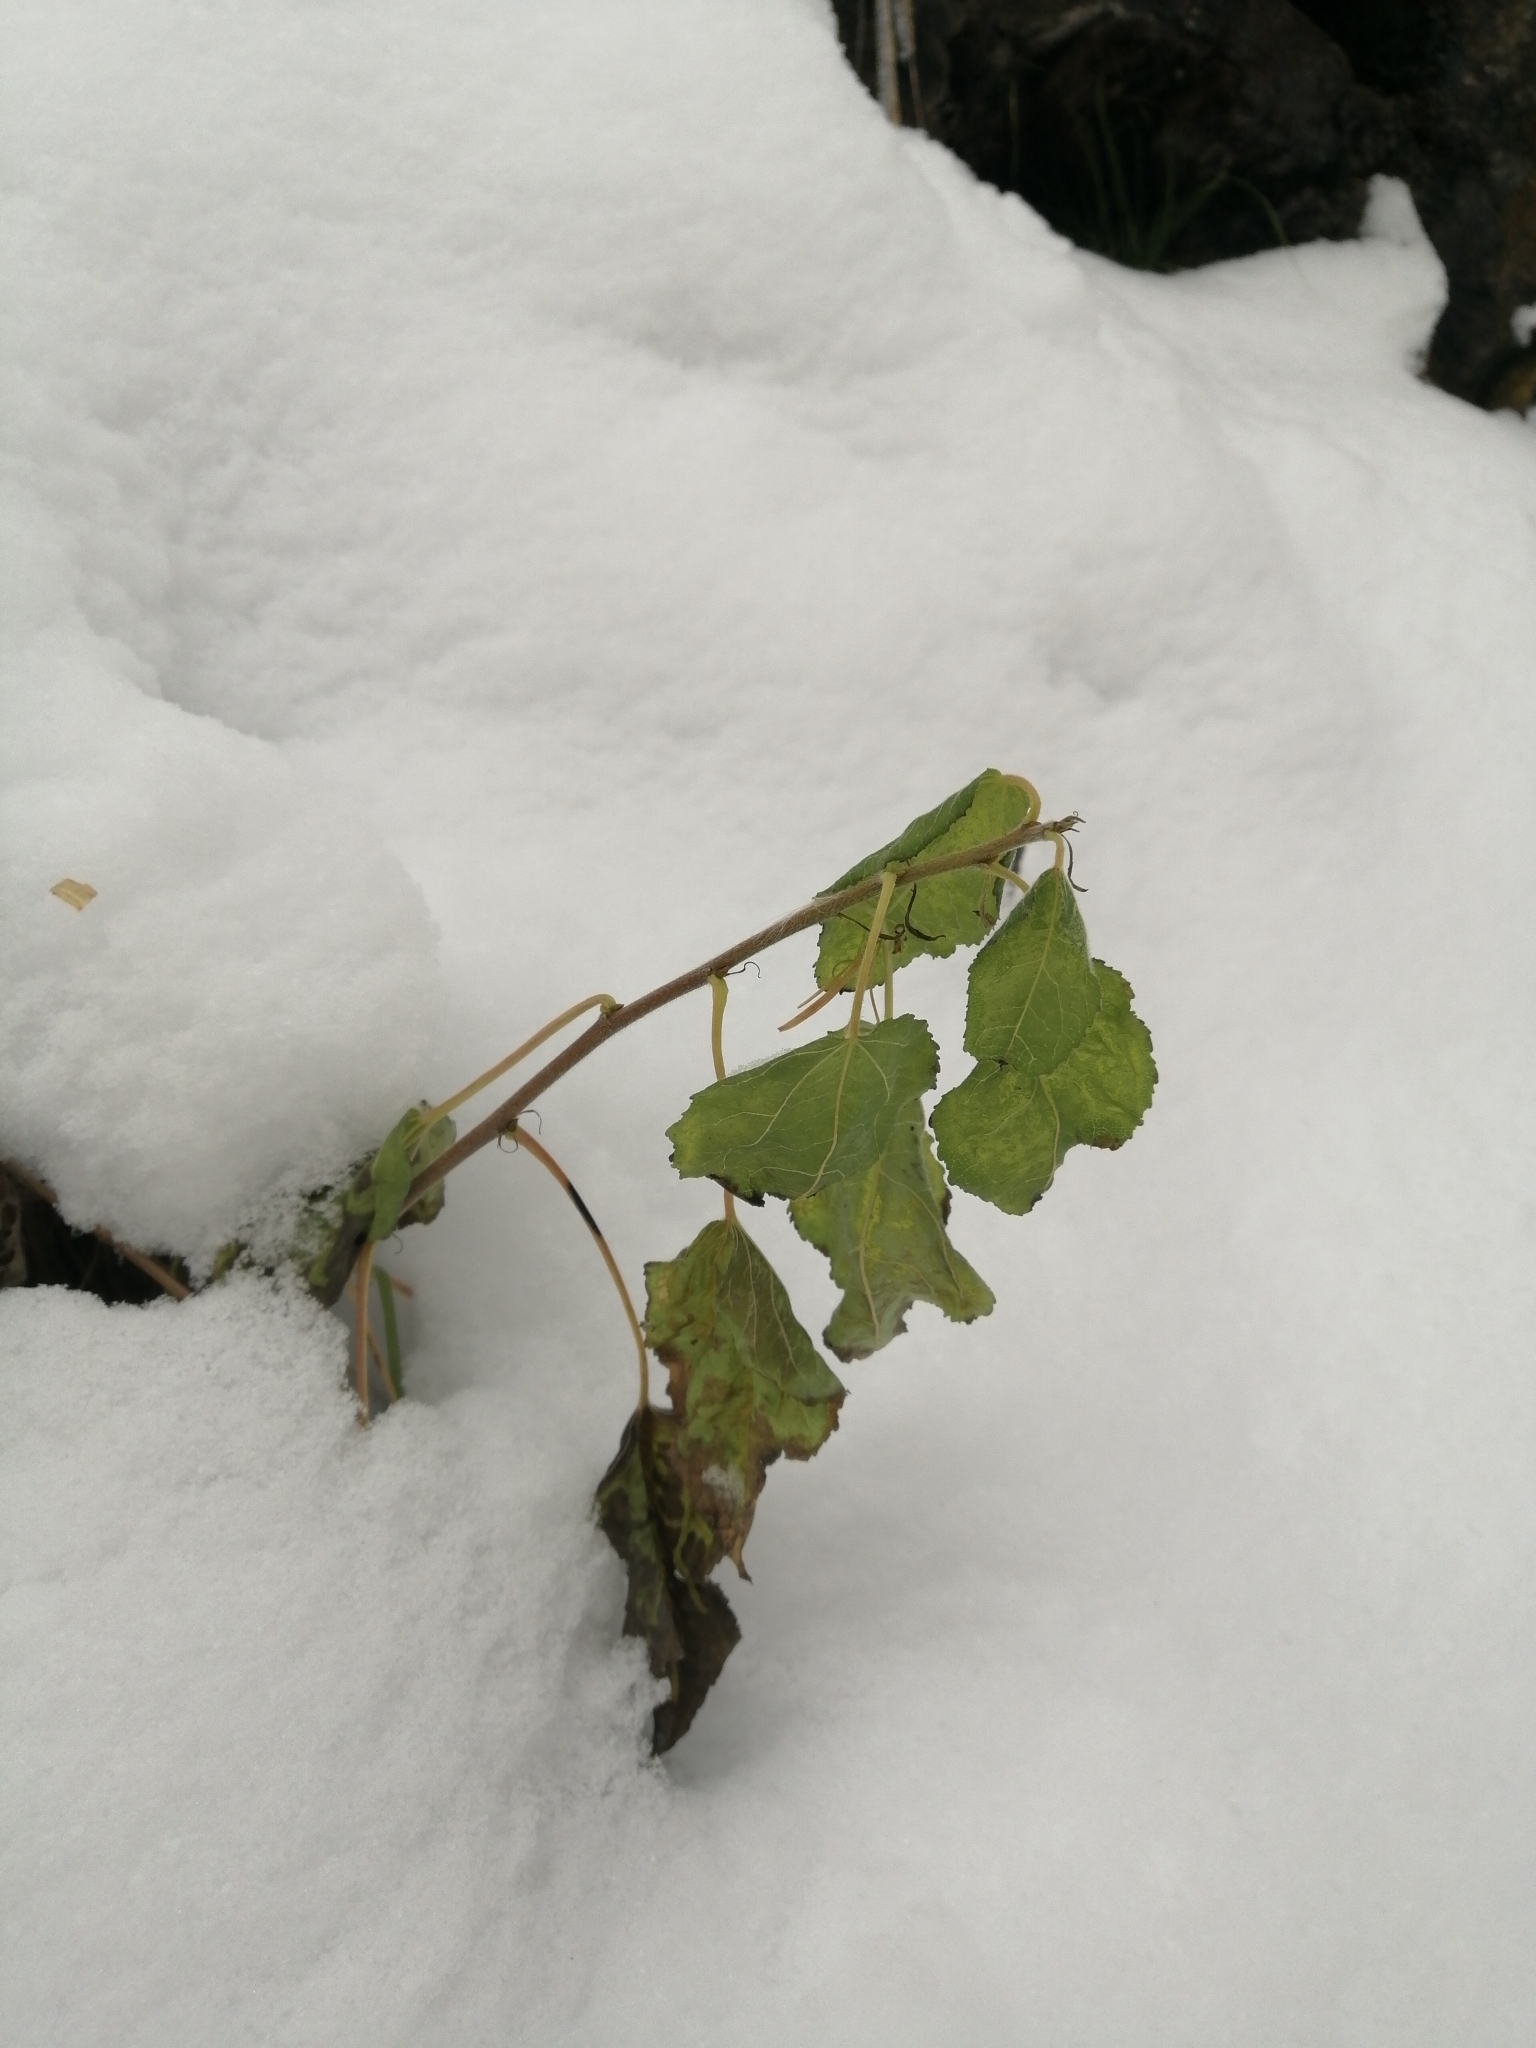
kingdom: Plantae
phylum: Tracheophyta
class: Magnoliopsida
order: Malpighiales
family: Salicaceae
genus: Populus
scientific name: Populus tremula
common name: European aspen
